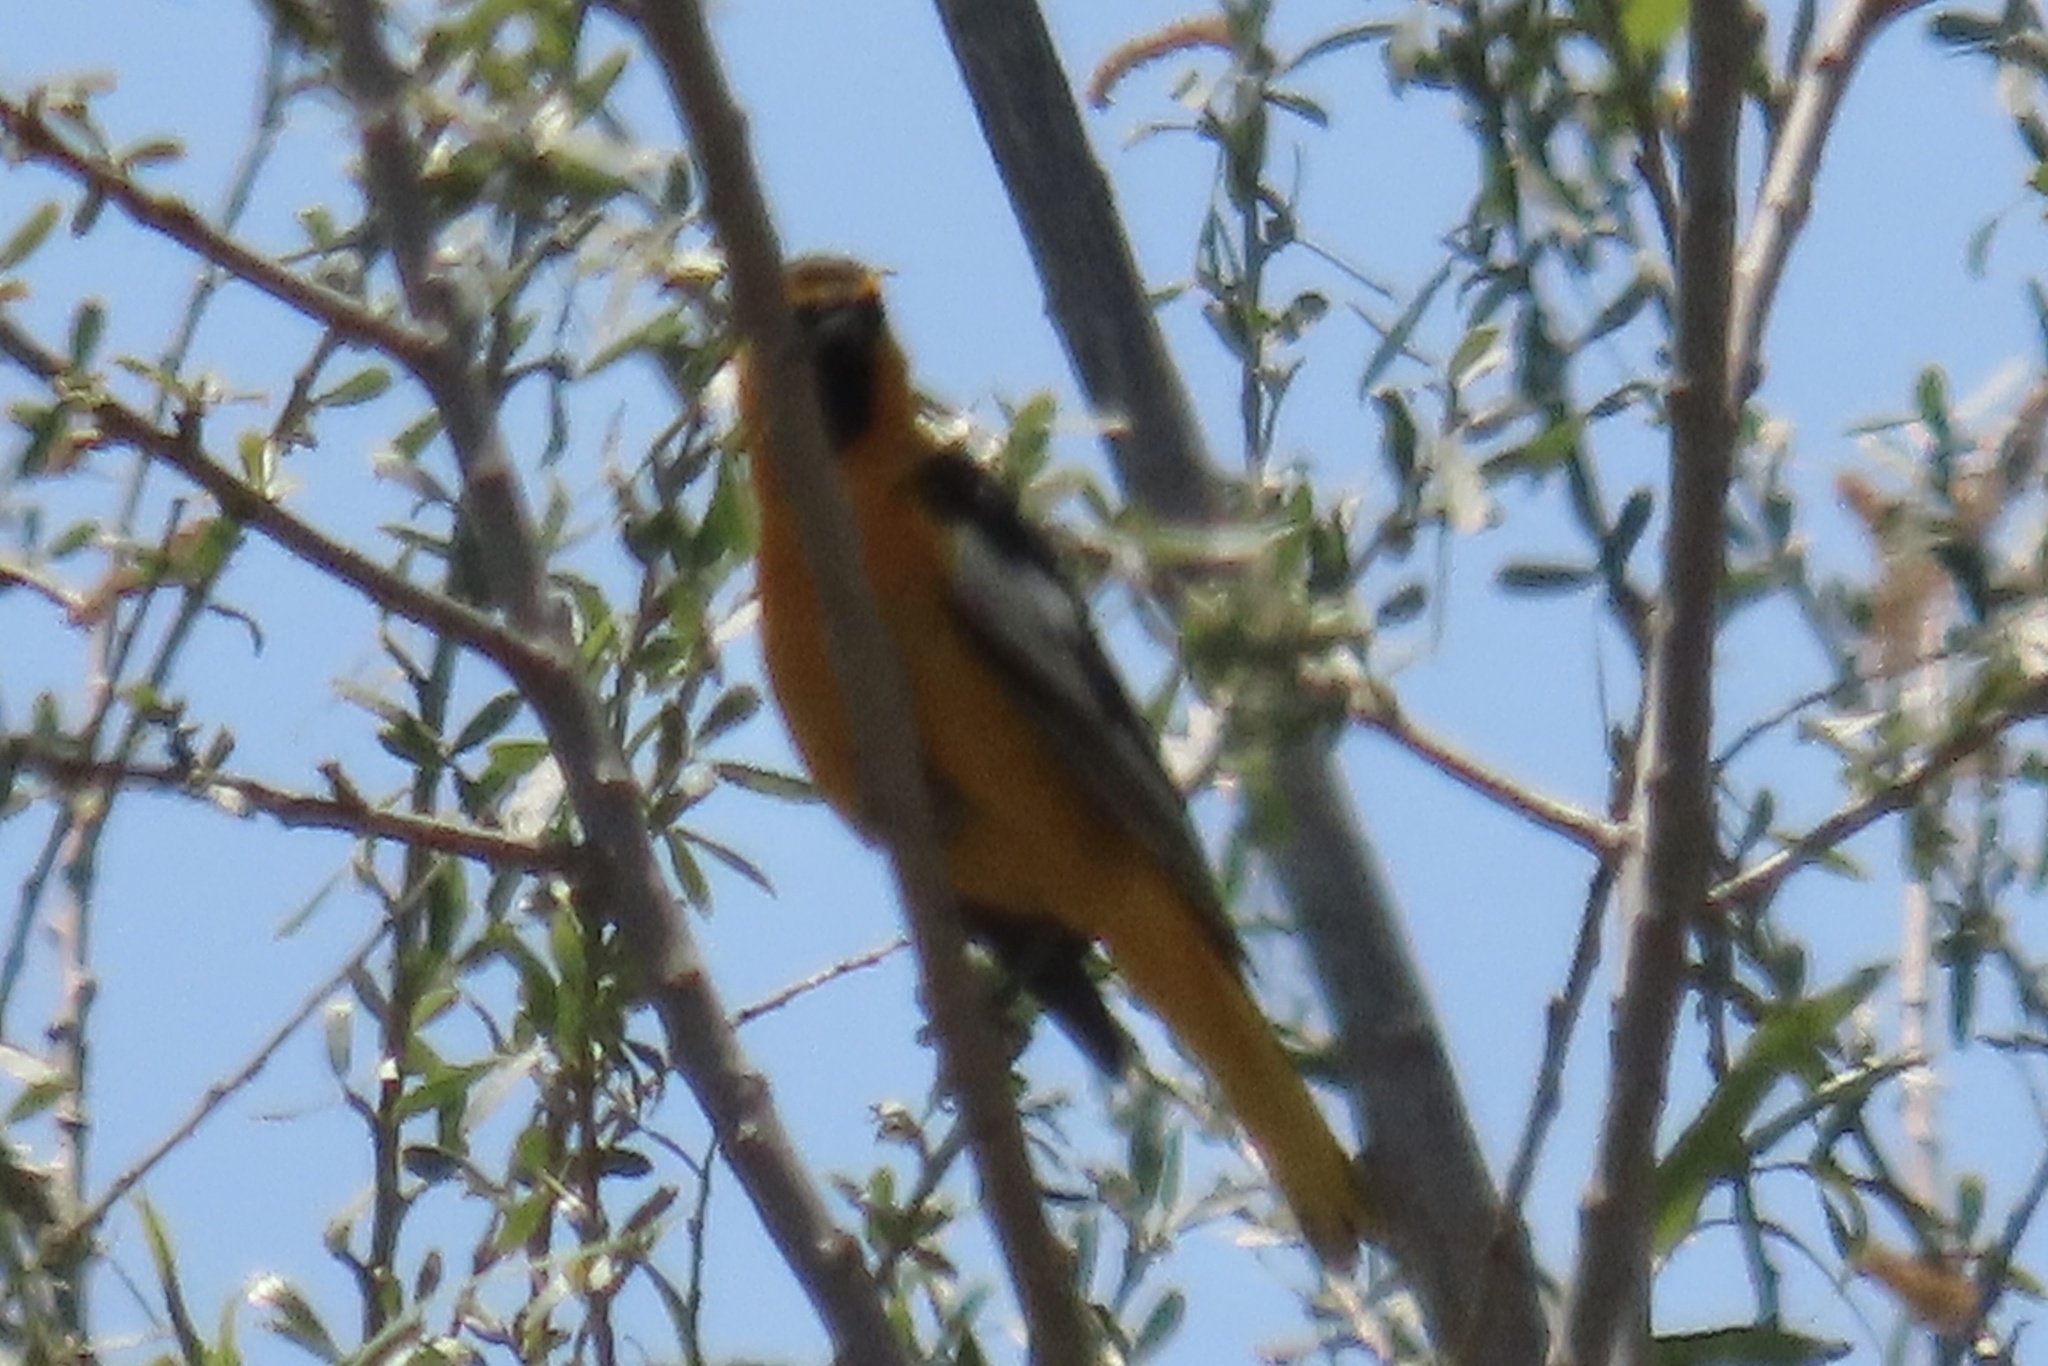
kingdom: Animalia
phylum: Chordata
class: Aves
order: Passeriformes
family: Icteridae
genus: Icterus
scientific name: Icterus bullockii
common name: Bullock's oriole
